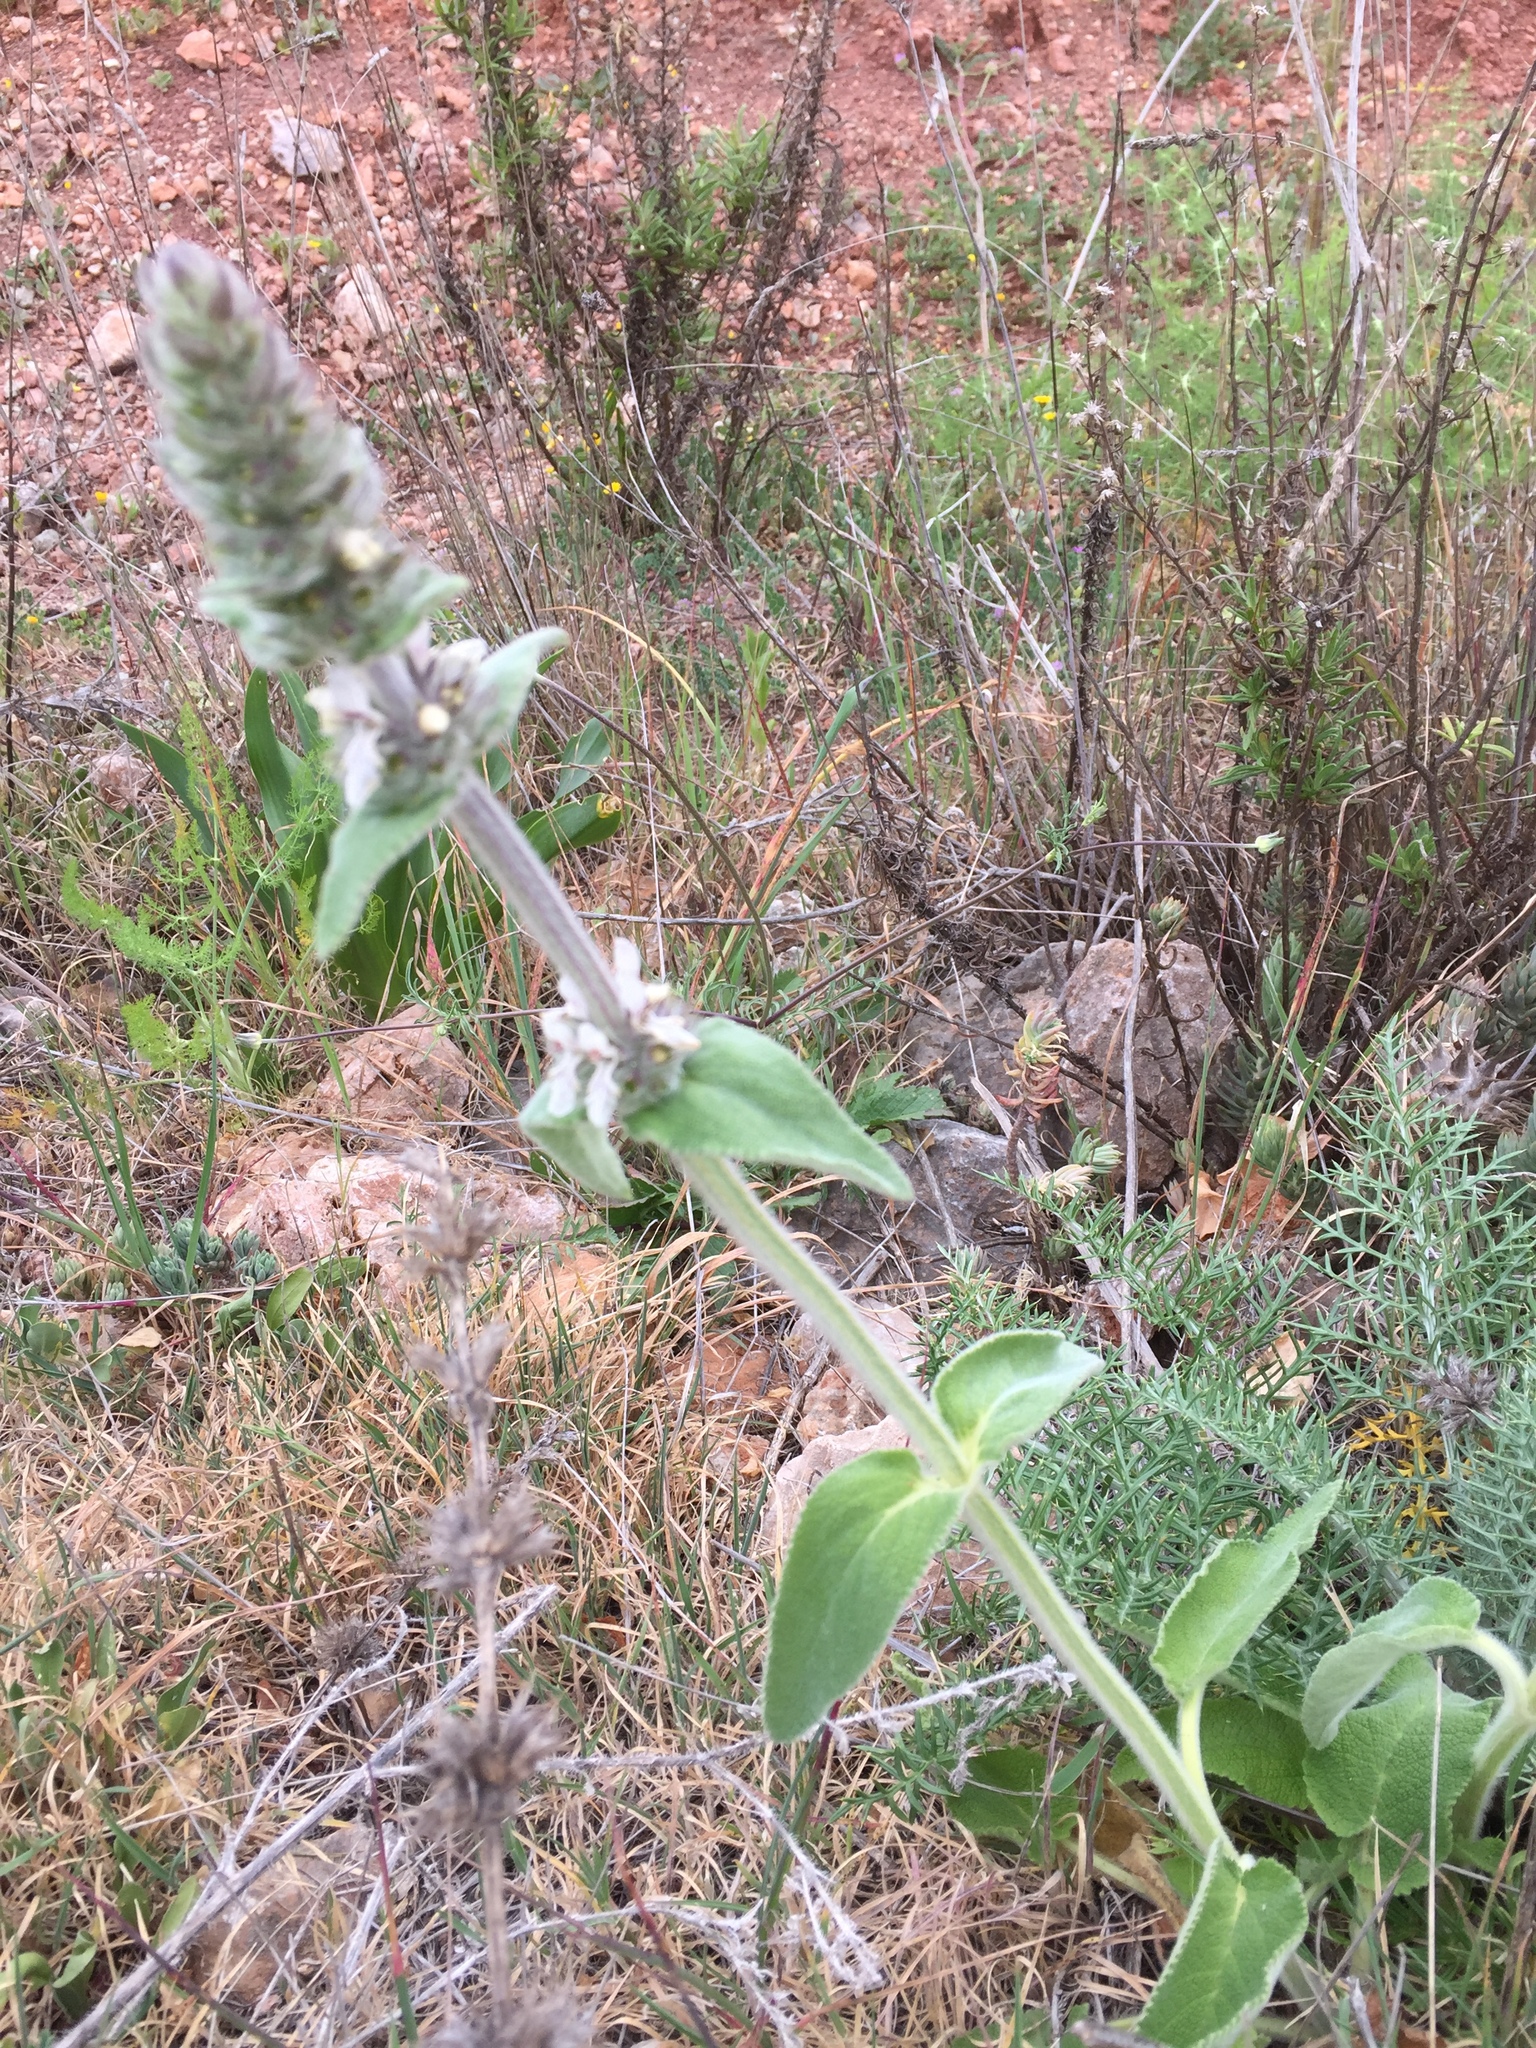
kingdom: Plantae
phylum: Tracheophyta
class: Magnoliopsida
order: Lamiales
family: Lamiaceae
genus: Stachys
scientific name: Stachys germanica
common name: Downy woundwort
